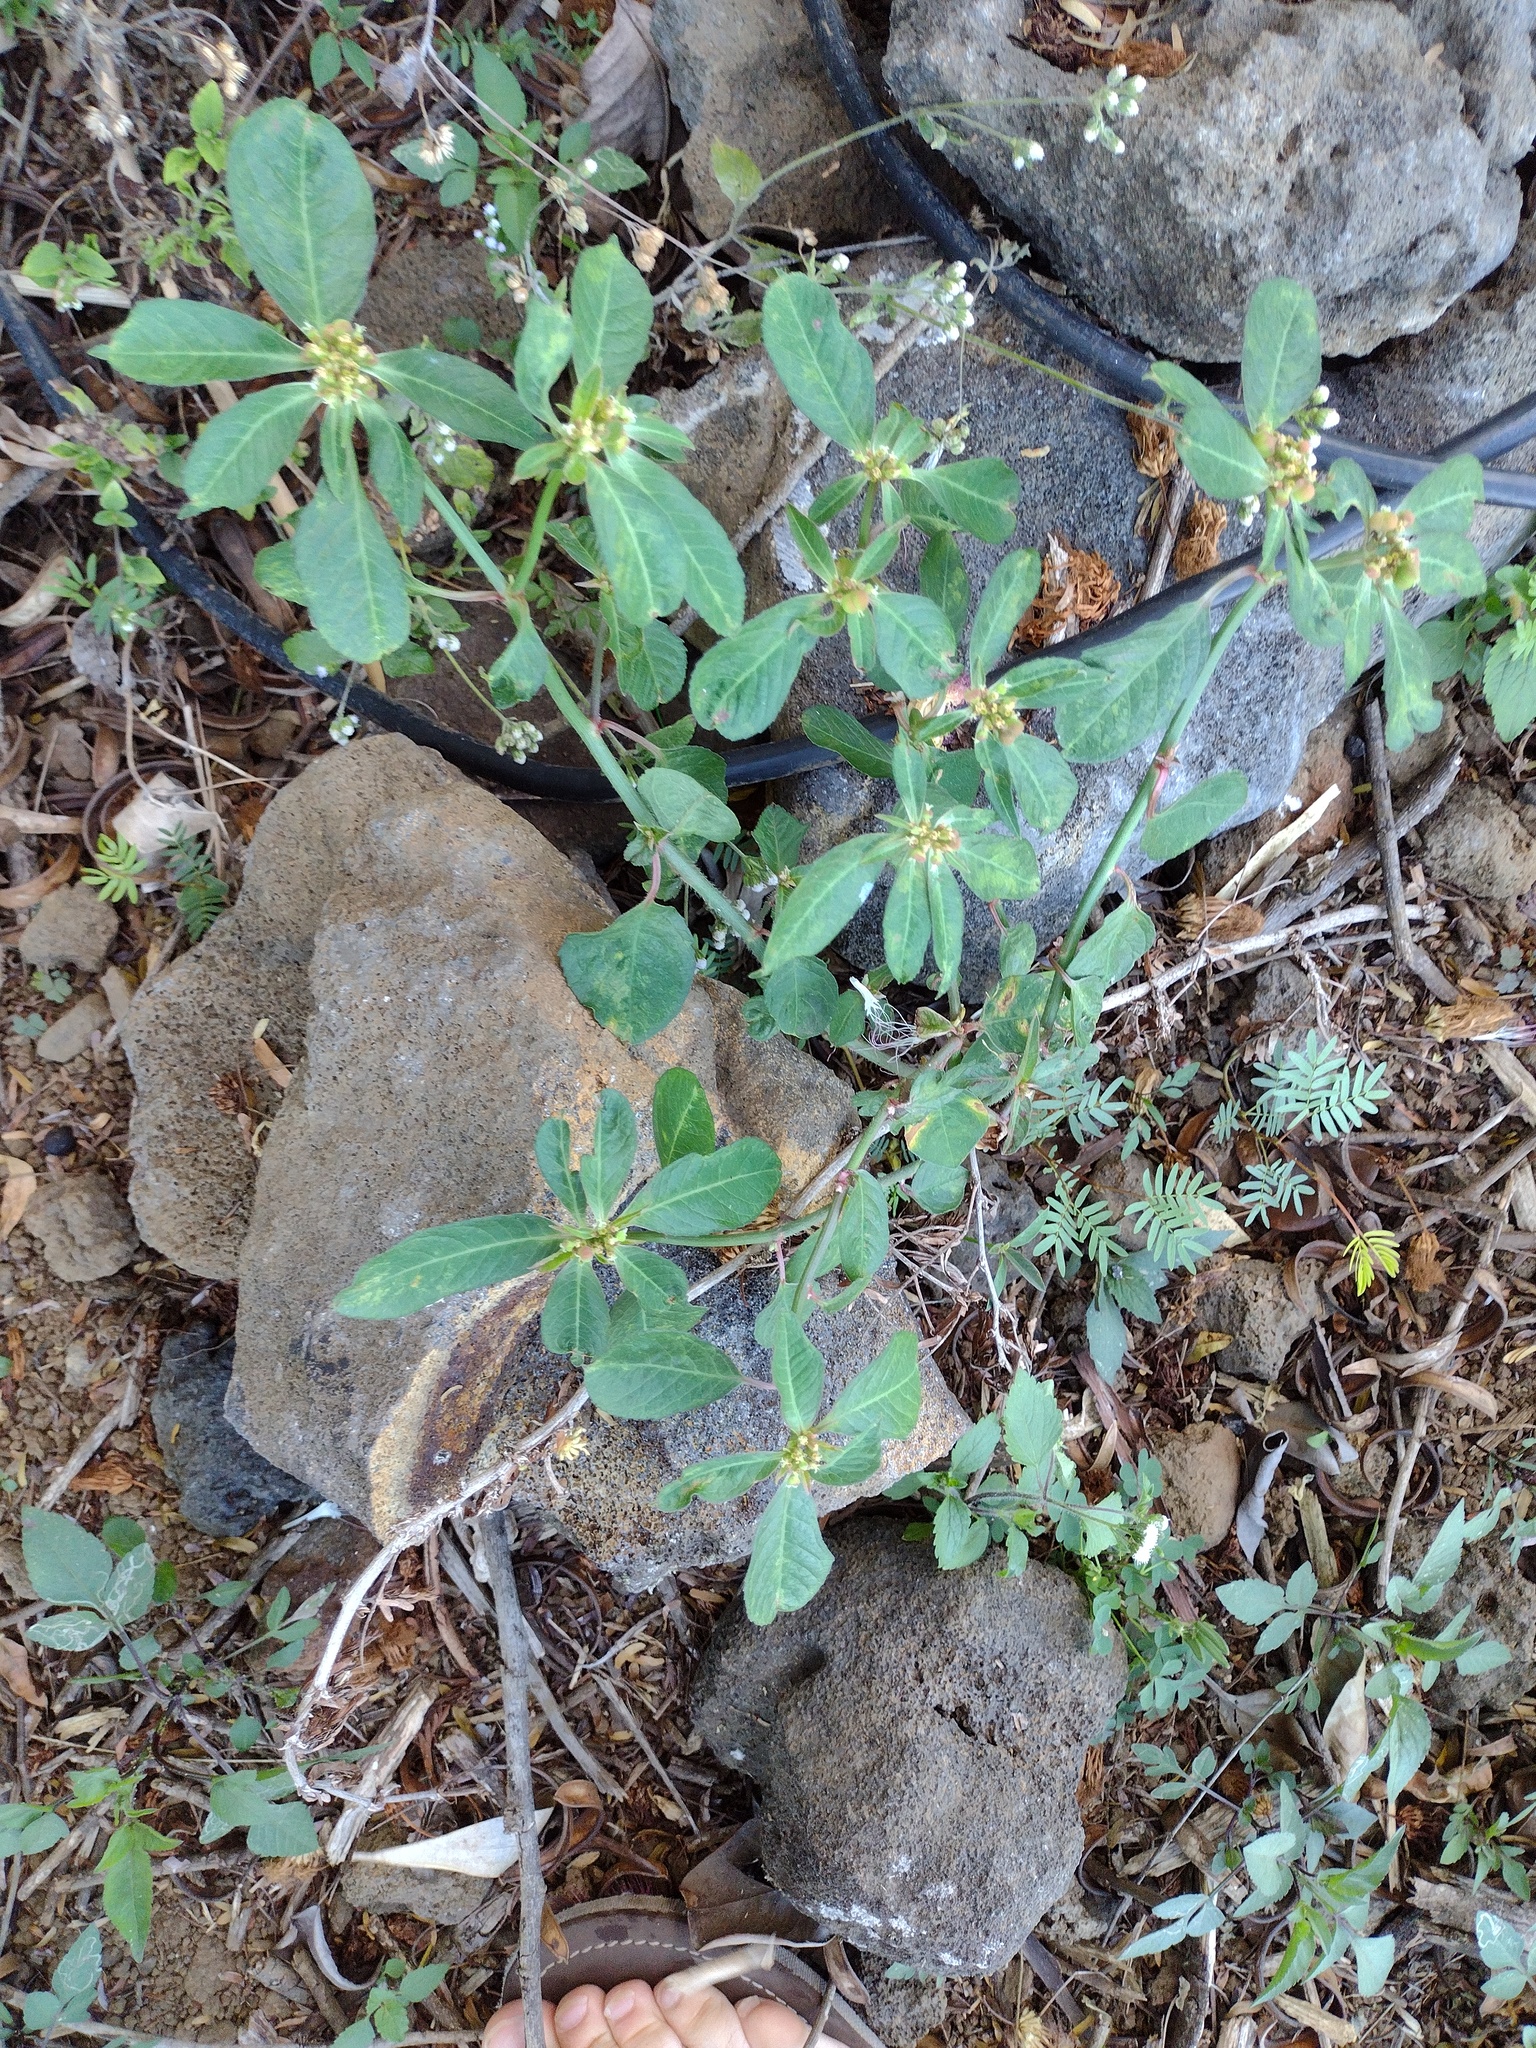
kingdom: Plantae
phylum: Tracheophyta
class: Magnoliopsida
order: Malpighiales
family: Euphorbiaceae
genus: Euphorbia
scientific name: Euphorbia heterophylla
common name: Mexican fireplant
